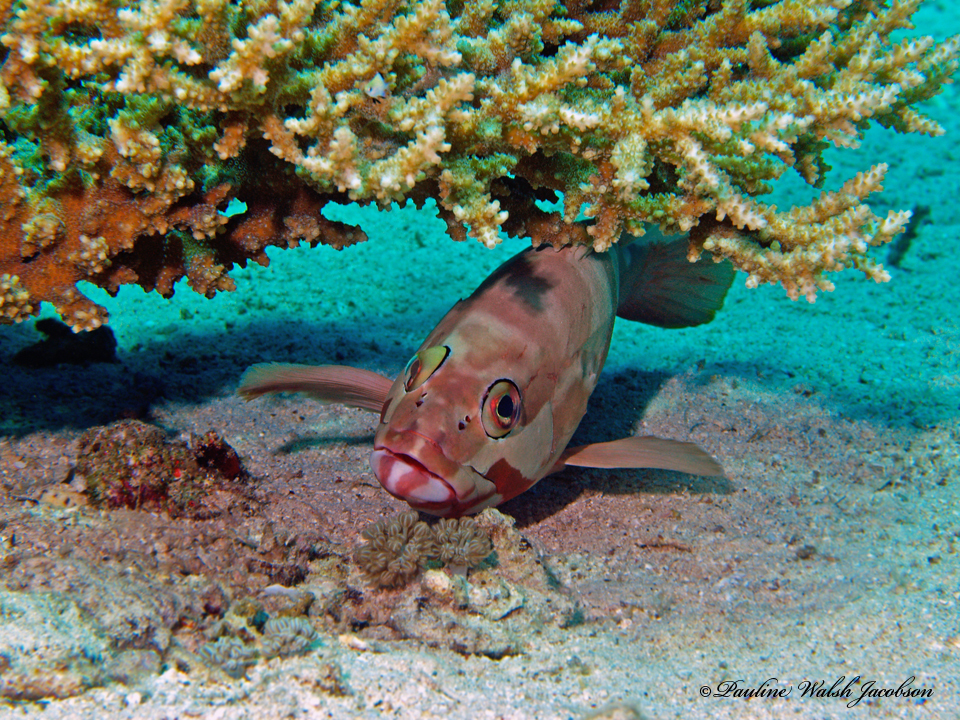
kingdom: Animalia
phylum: Chordata
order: Perciformes
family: Serranidae
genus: Epinephelus
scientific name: Epinephelus fasciatus
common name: Blacktip grouper
